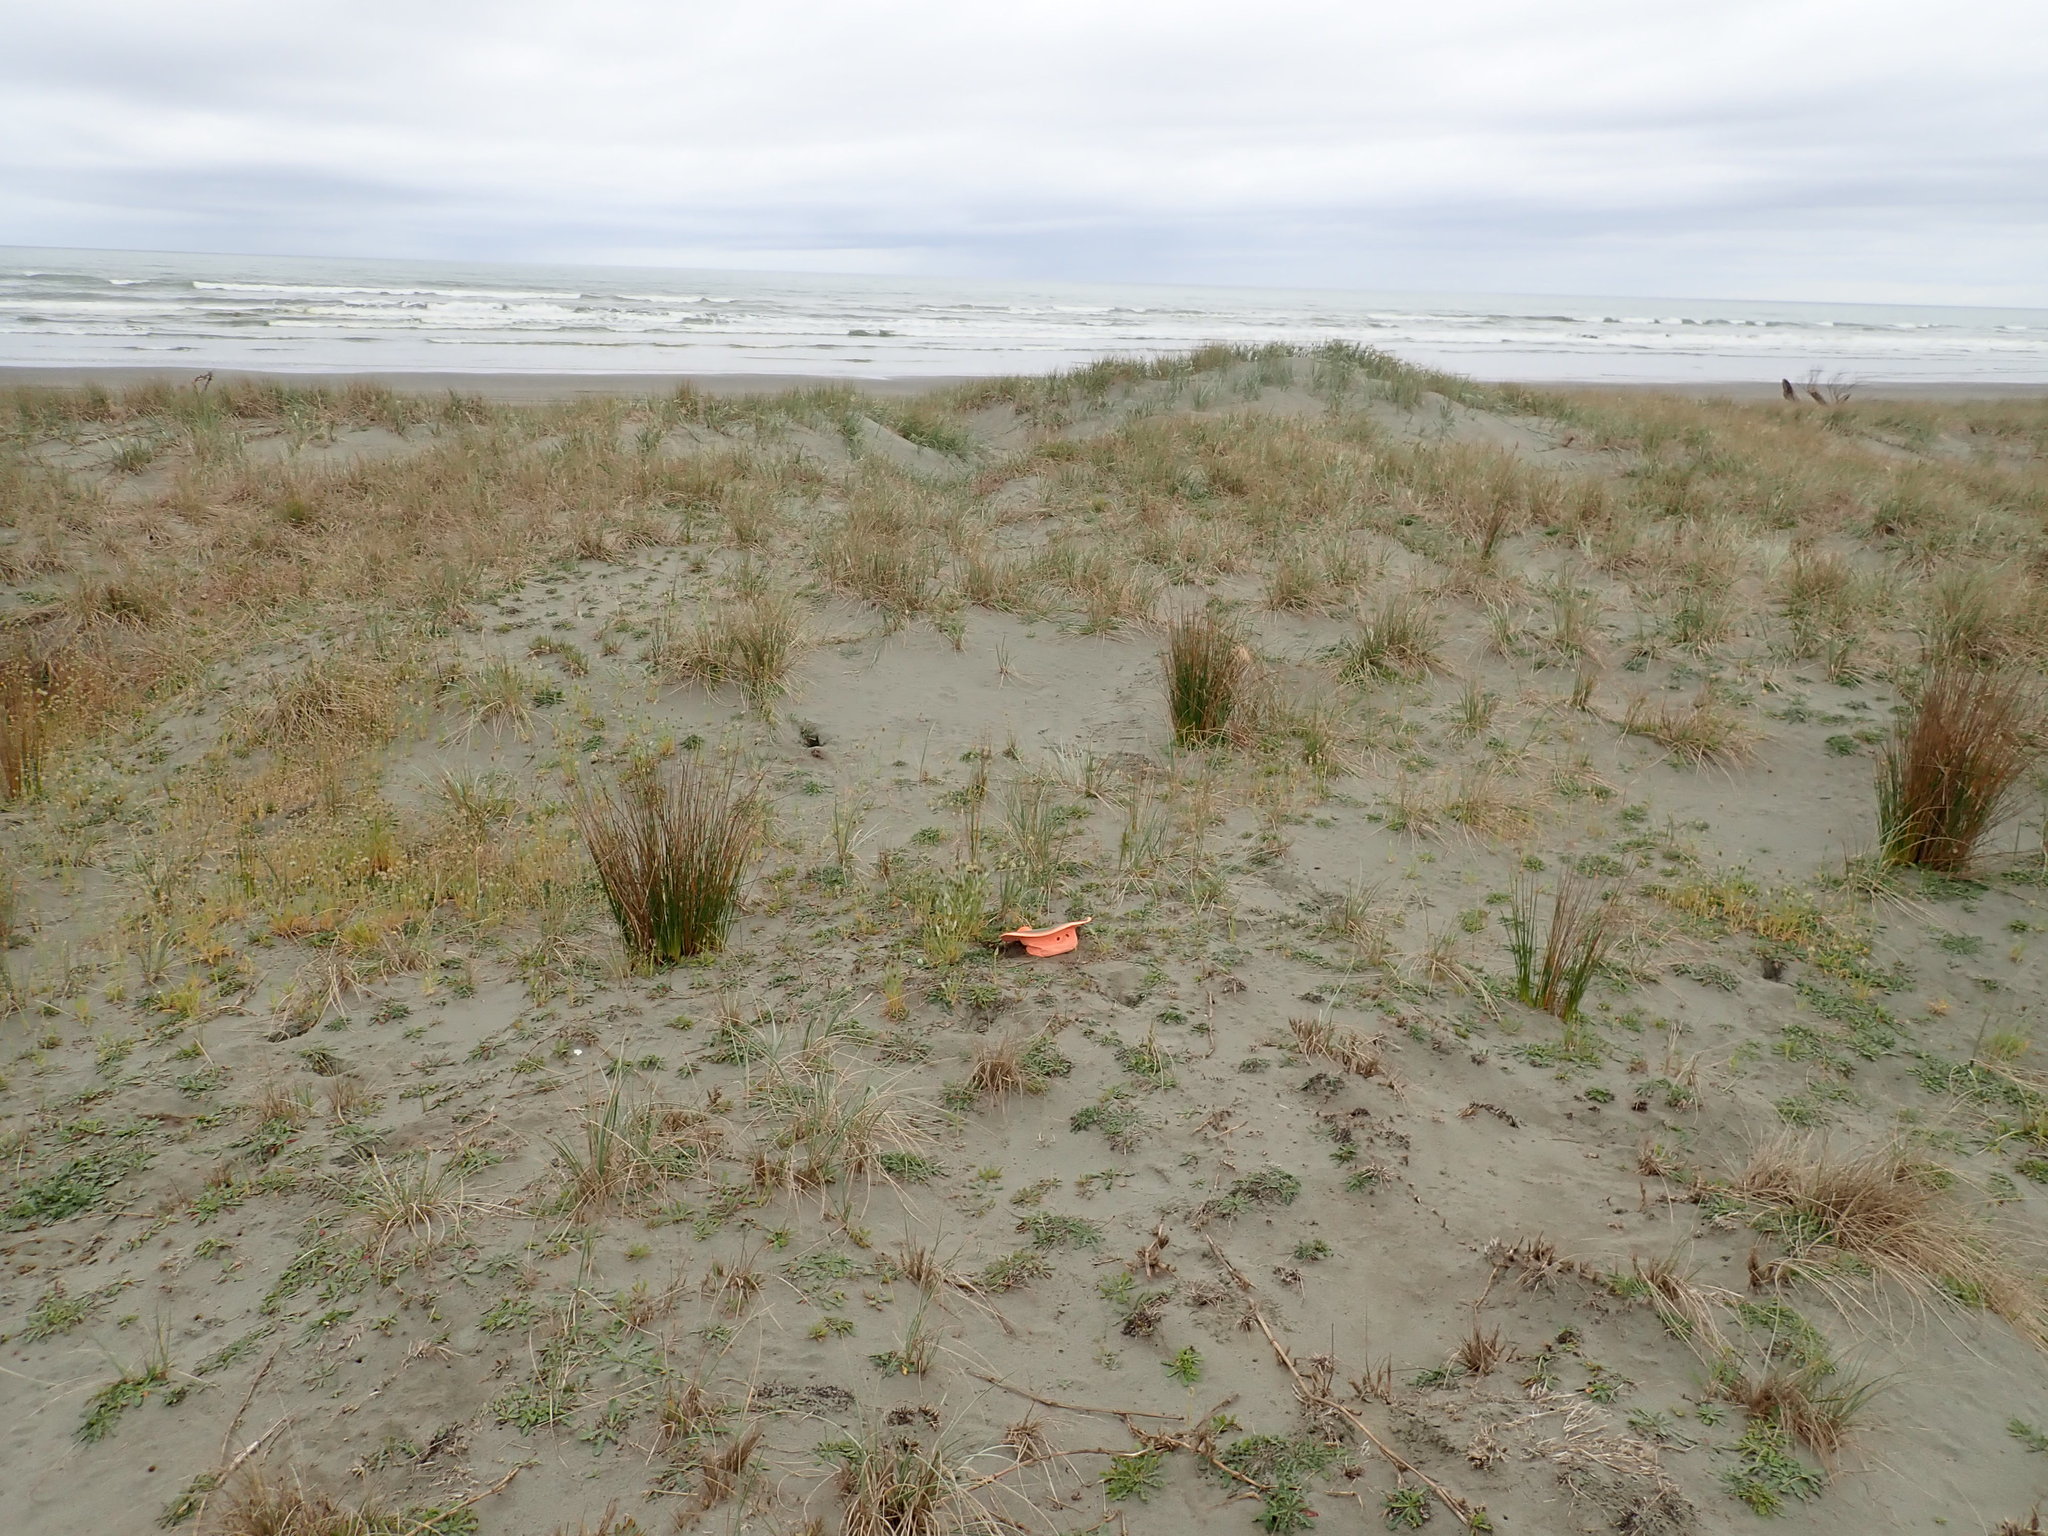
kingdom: Plantae
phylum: Tracheophyta
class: Liliopsida
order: Poales
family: Poaceae
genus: Lagurus
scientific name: Lagurus ovatus
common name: Hare's-tail
